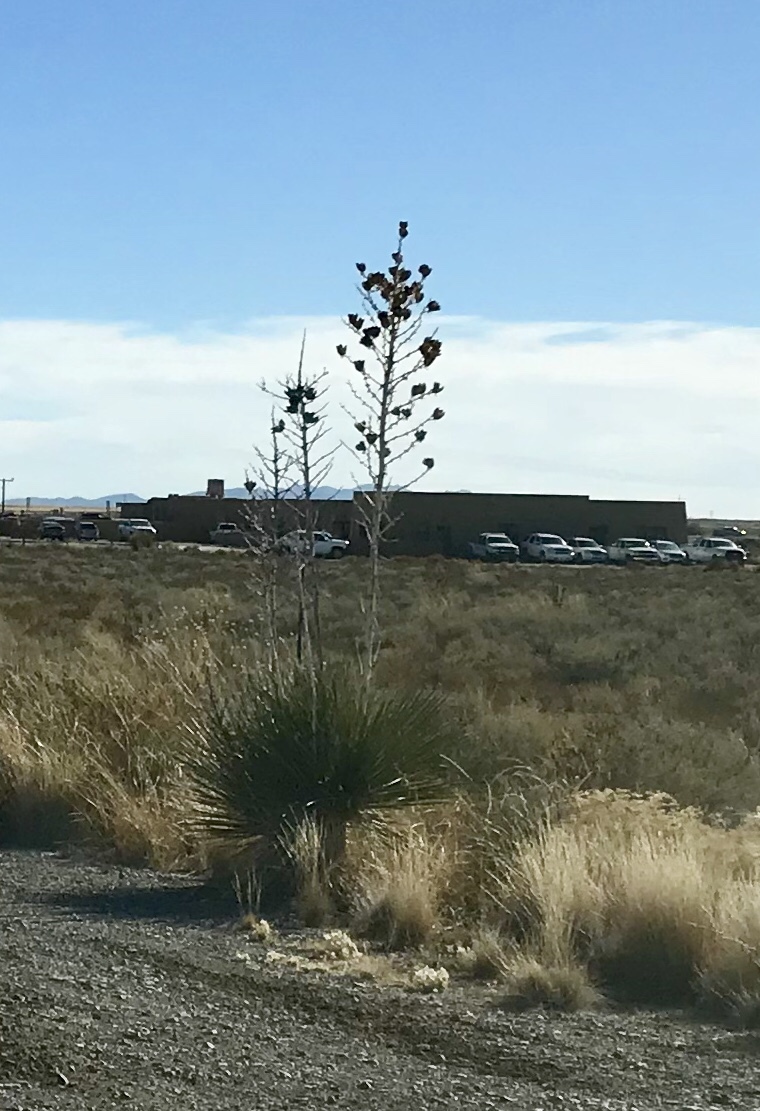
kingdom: Plantae
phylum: Tracheophyta
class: Liliopsida
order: Asparagales
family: Asparagaceae
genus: Yucca
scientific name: Yucca elata
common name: Palmella
